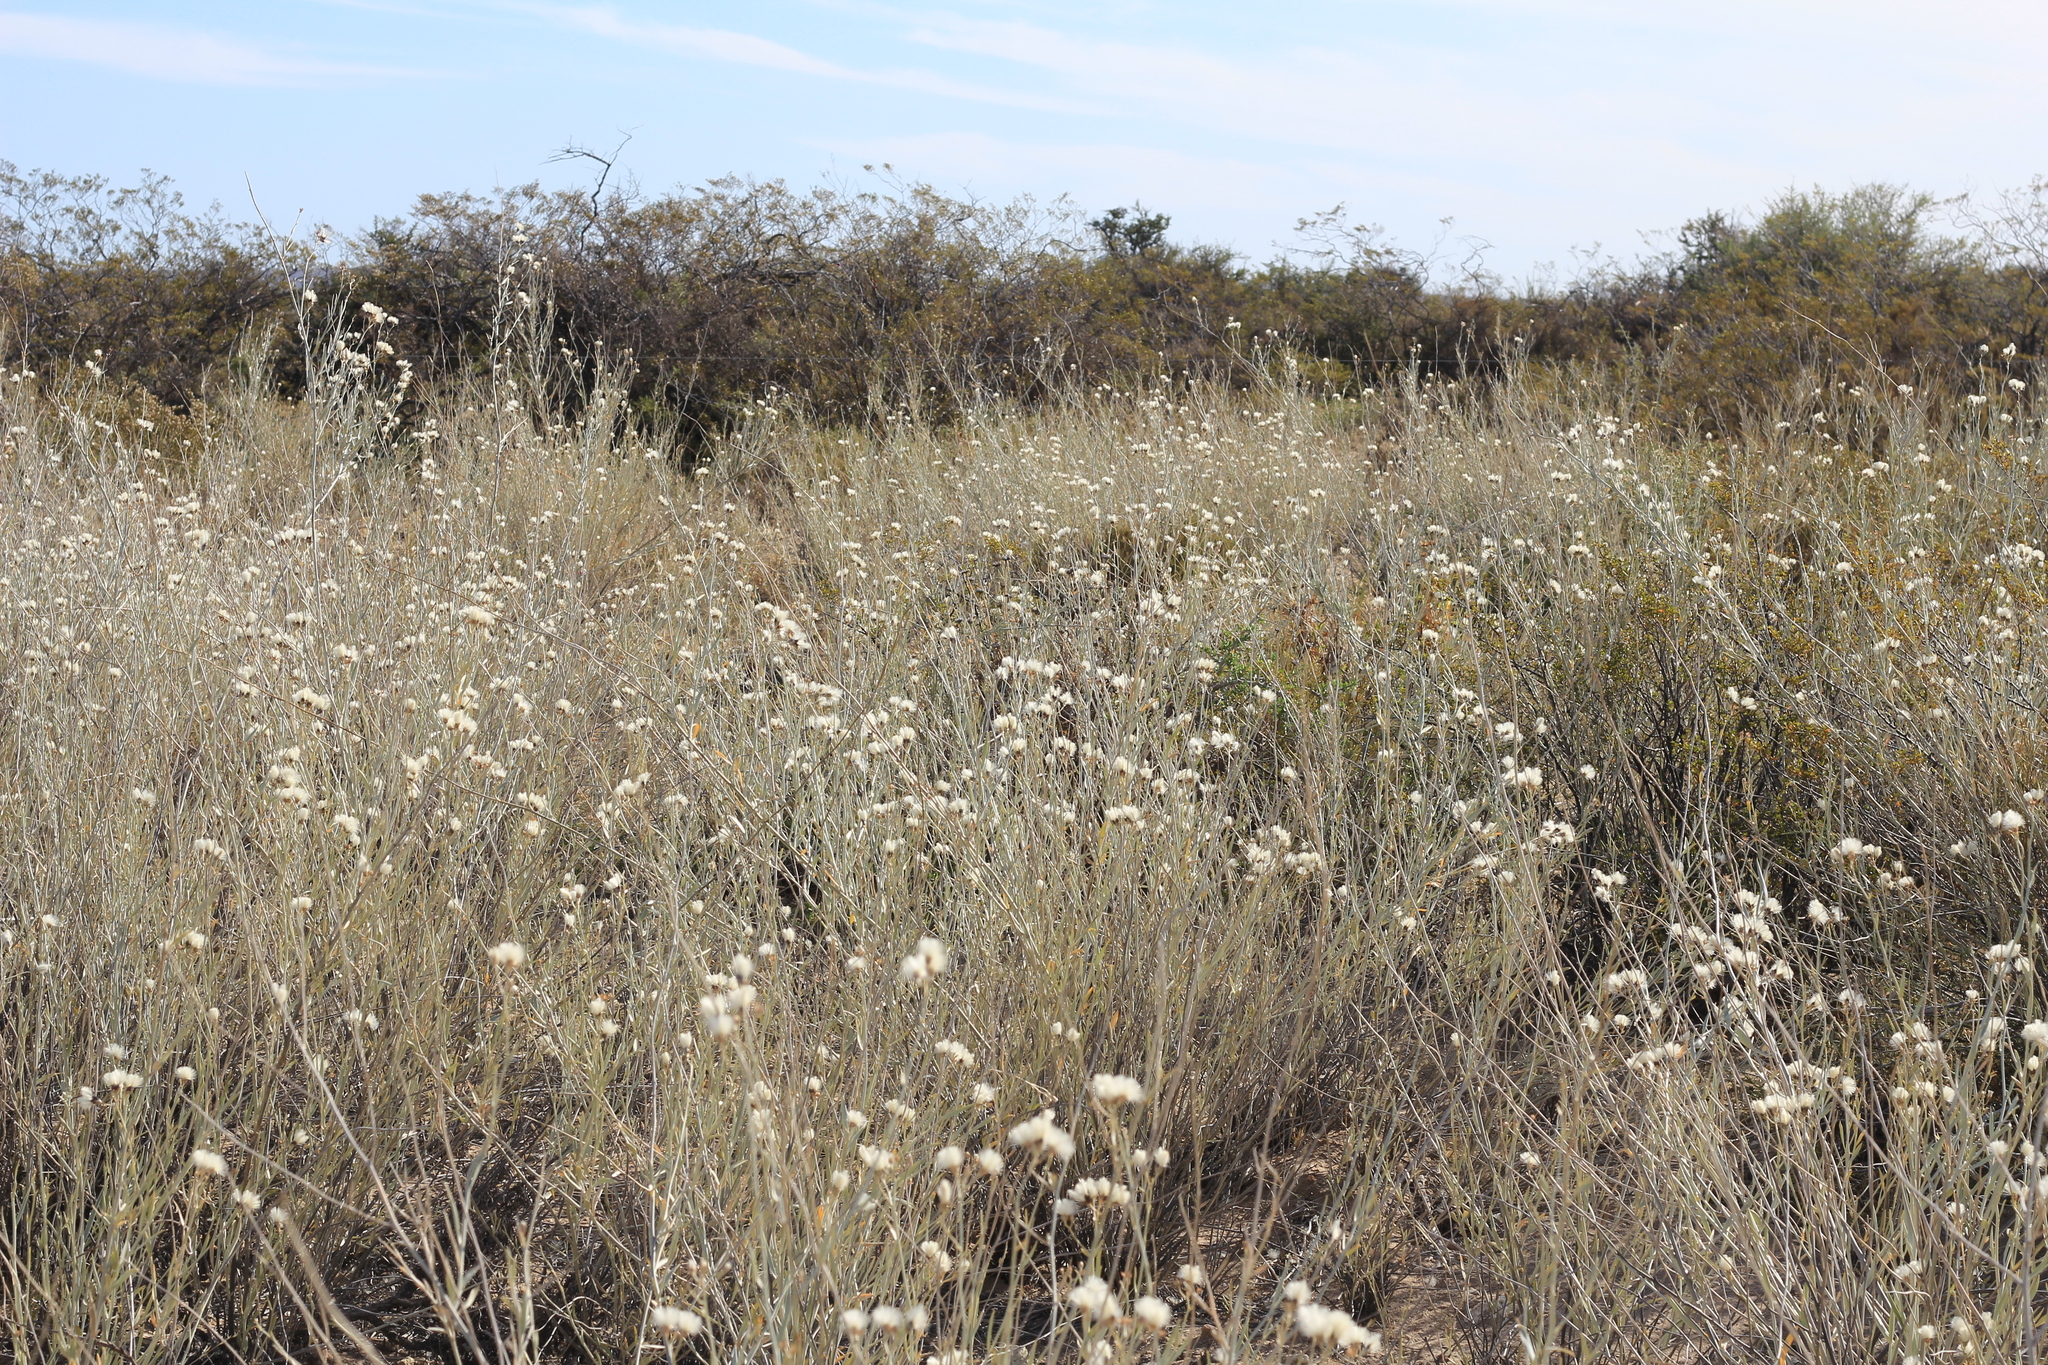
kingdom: Plantae
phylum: Tracheophyta
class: Magnoliopsida
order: Asterales
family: Asteraceae
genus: Hyalis
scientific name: Hyalis argentea
